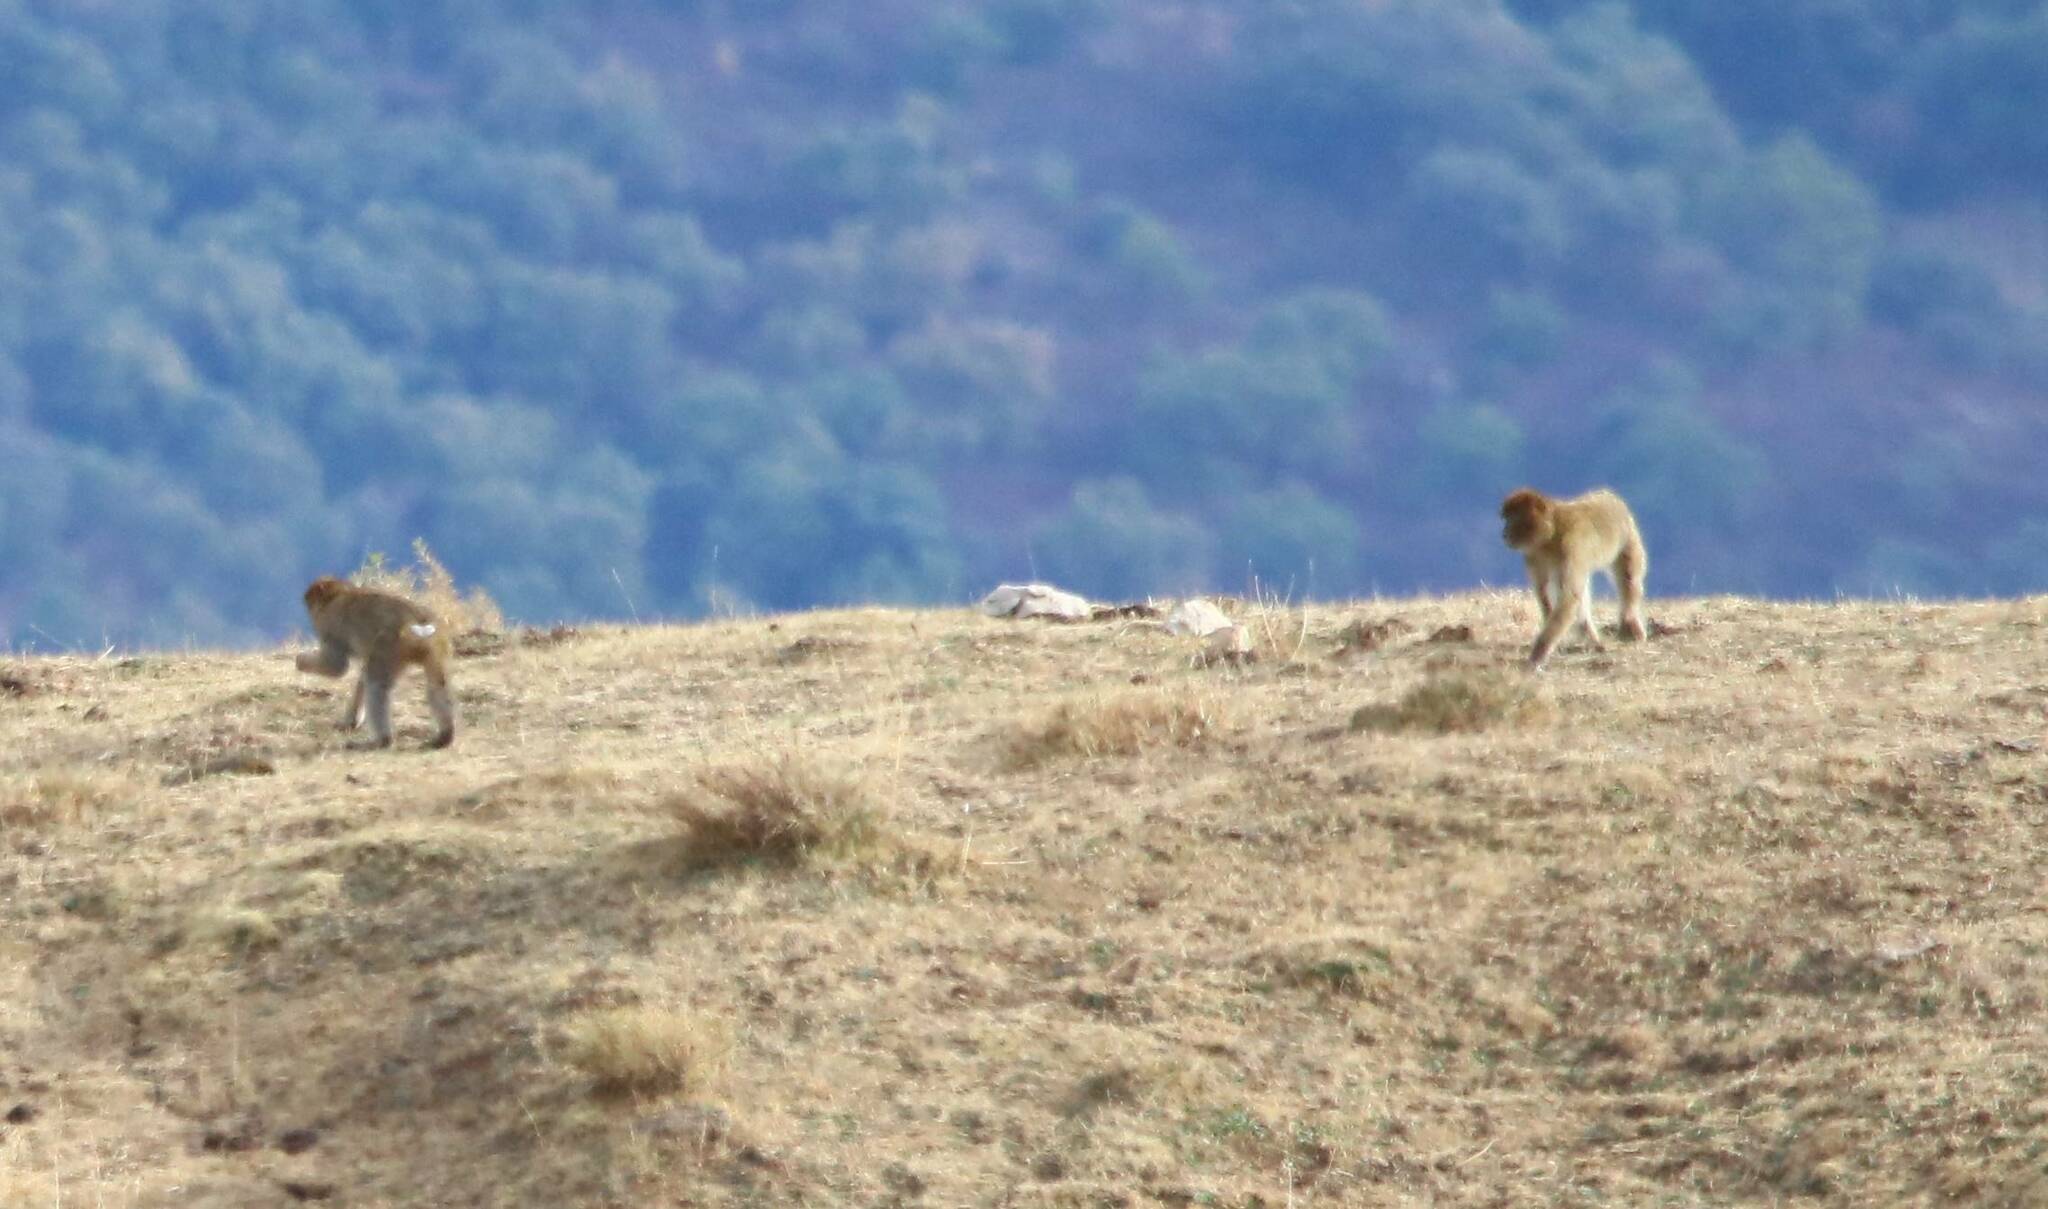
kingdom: Animalia
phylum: Chordata
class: Mammalia
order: Primates
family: Cercopithecidae
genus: Macaca
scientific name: Macaca sylvanus
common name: Barbary macaque
